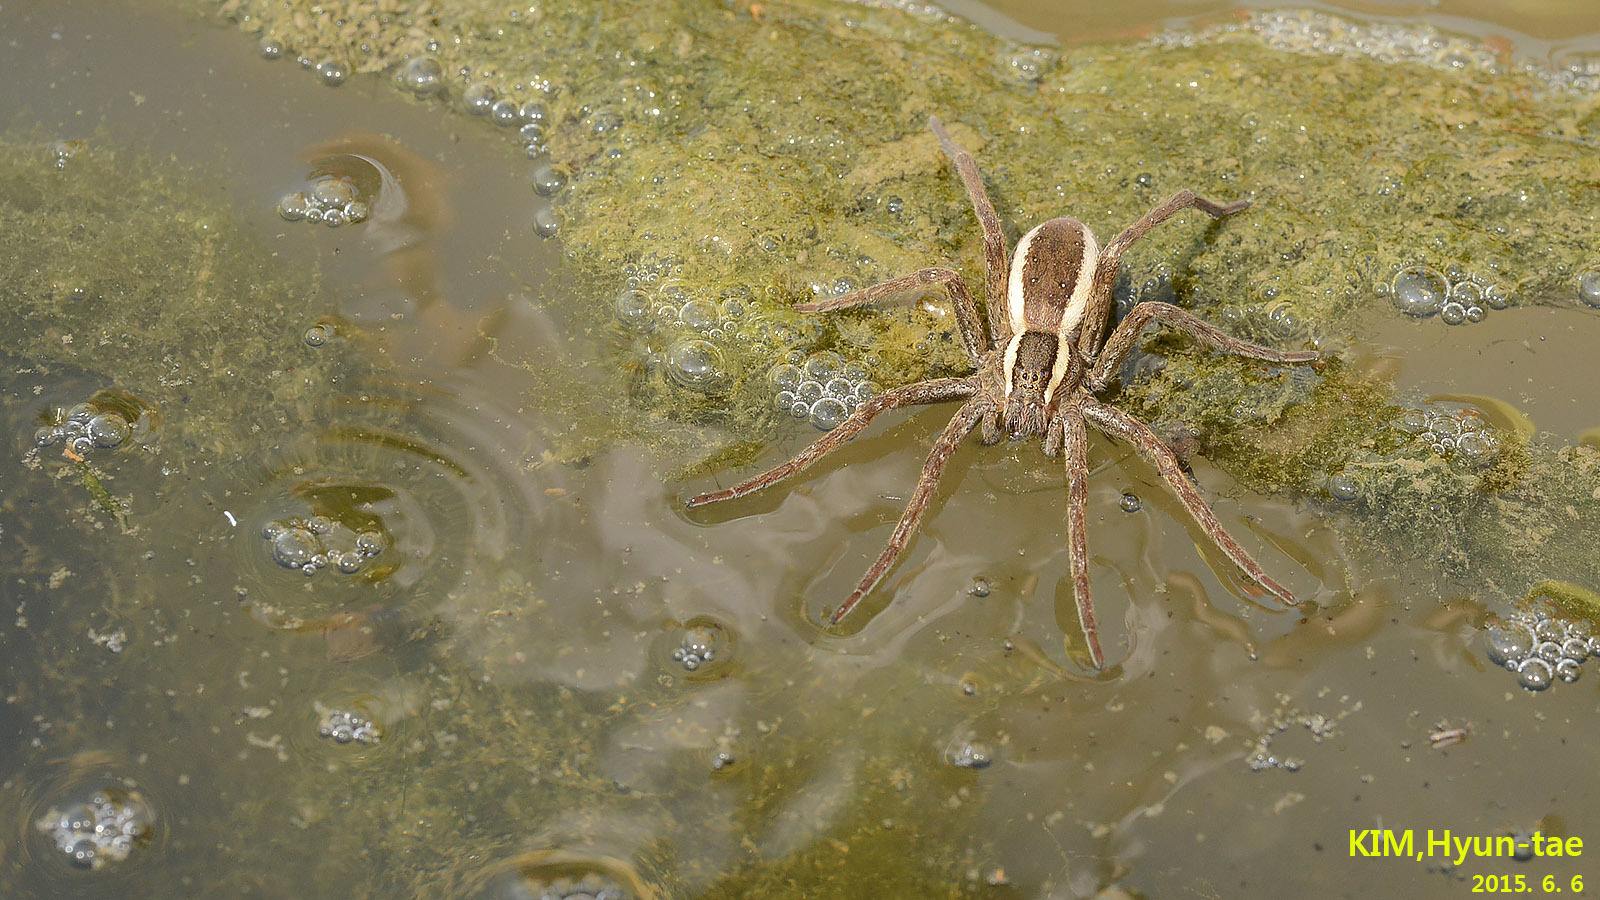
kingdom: Animalia
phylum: Arthropoda
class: Arachnida
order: Araneae
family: Pisauridae
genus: Dolomedes
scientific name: Dolomedes sulfureus
